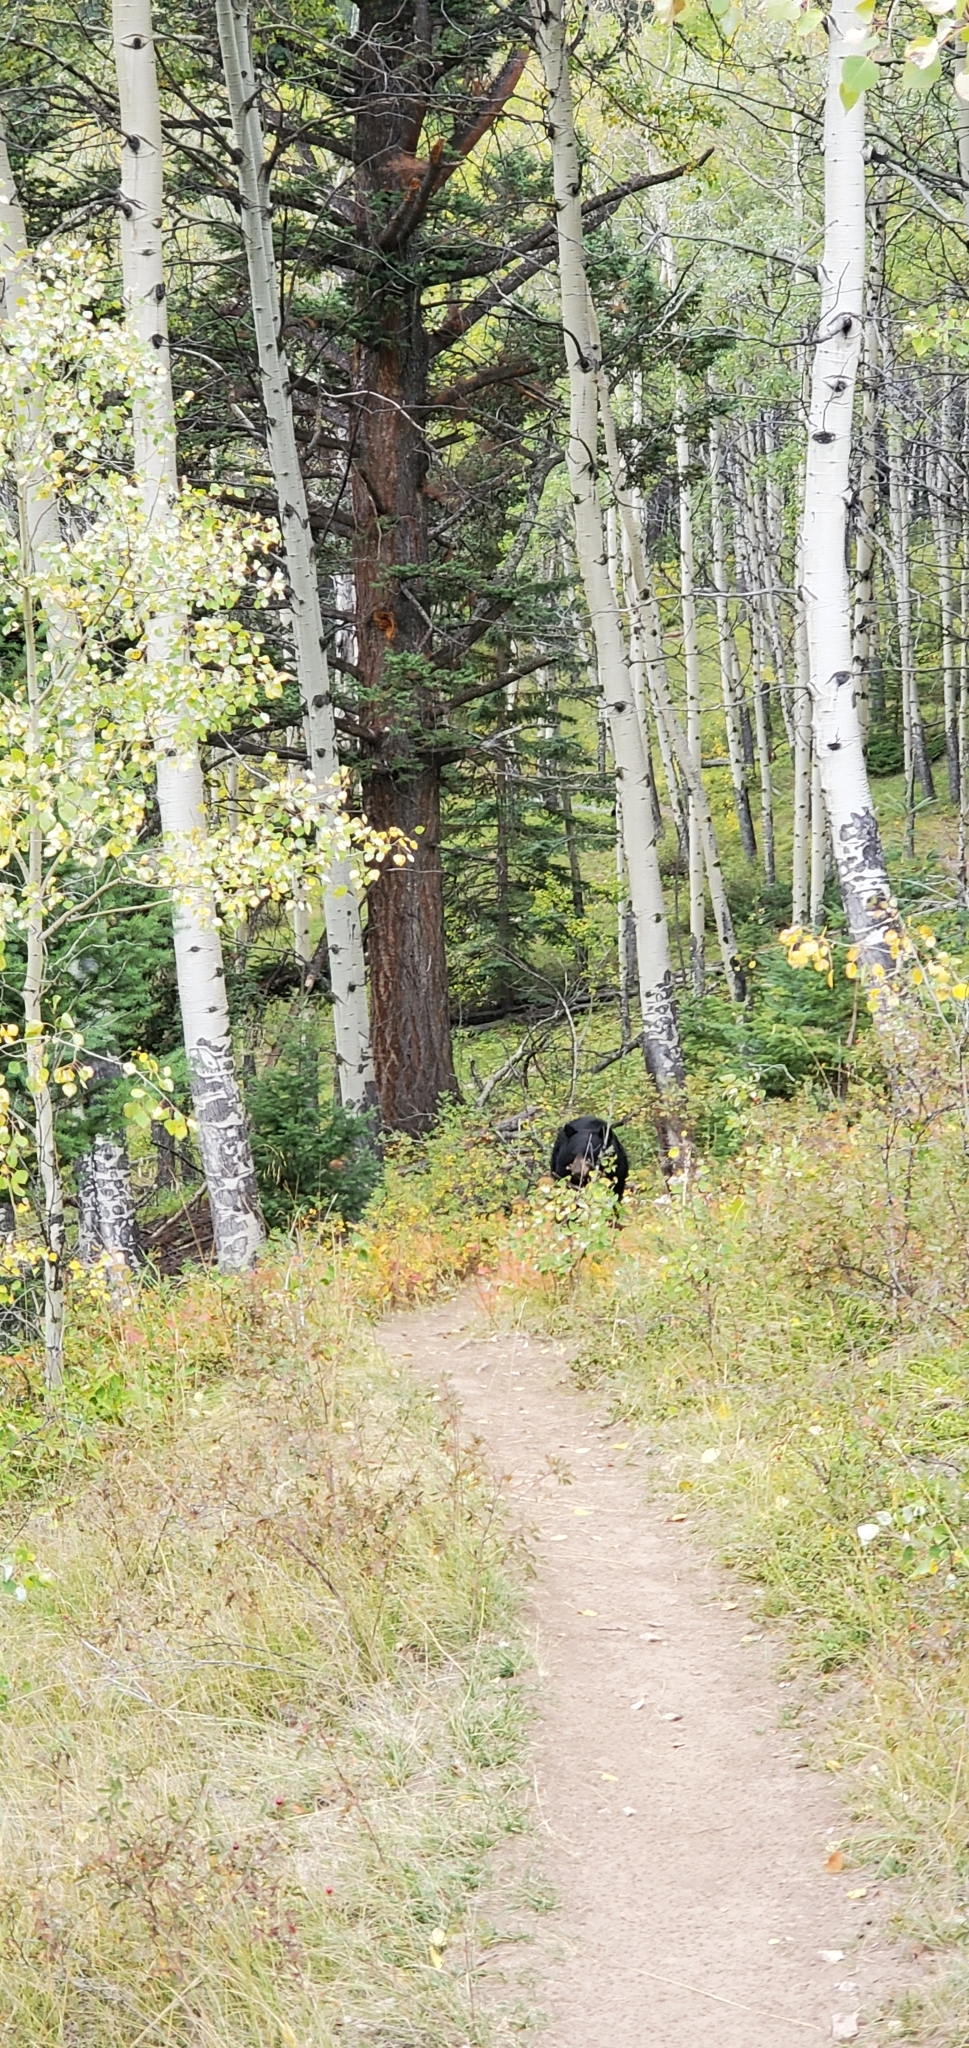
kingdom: Animalia
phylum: Chordata
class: Mammalia
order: Carnivora
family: Ursidae
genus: Ursus
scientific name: Ursus americanus
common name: American black bear
